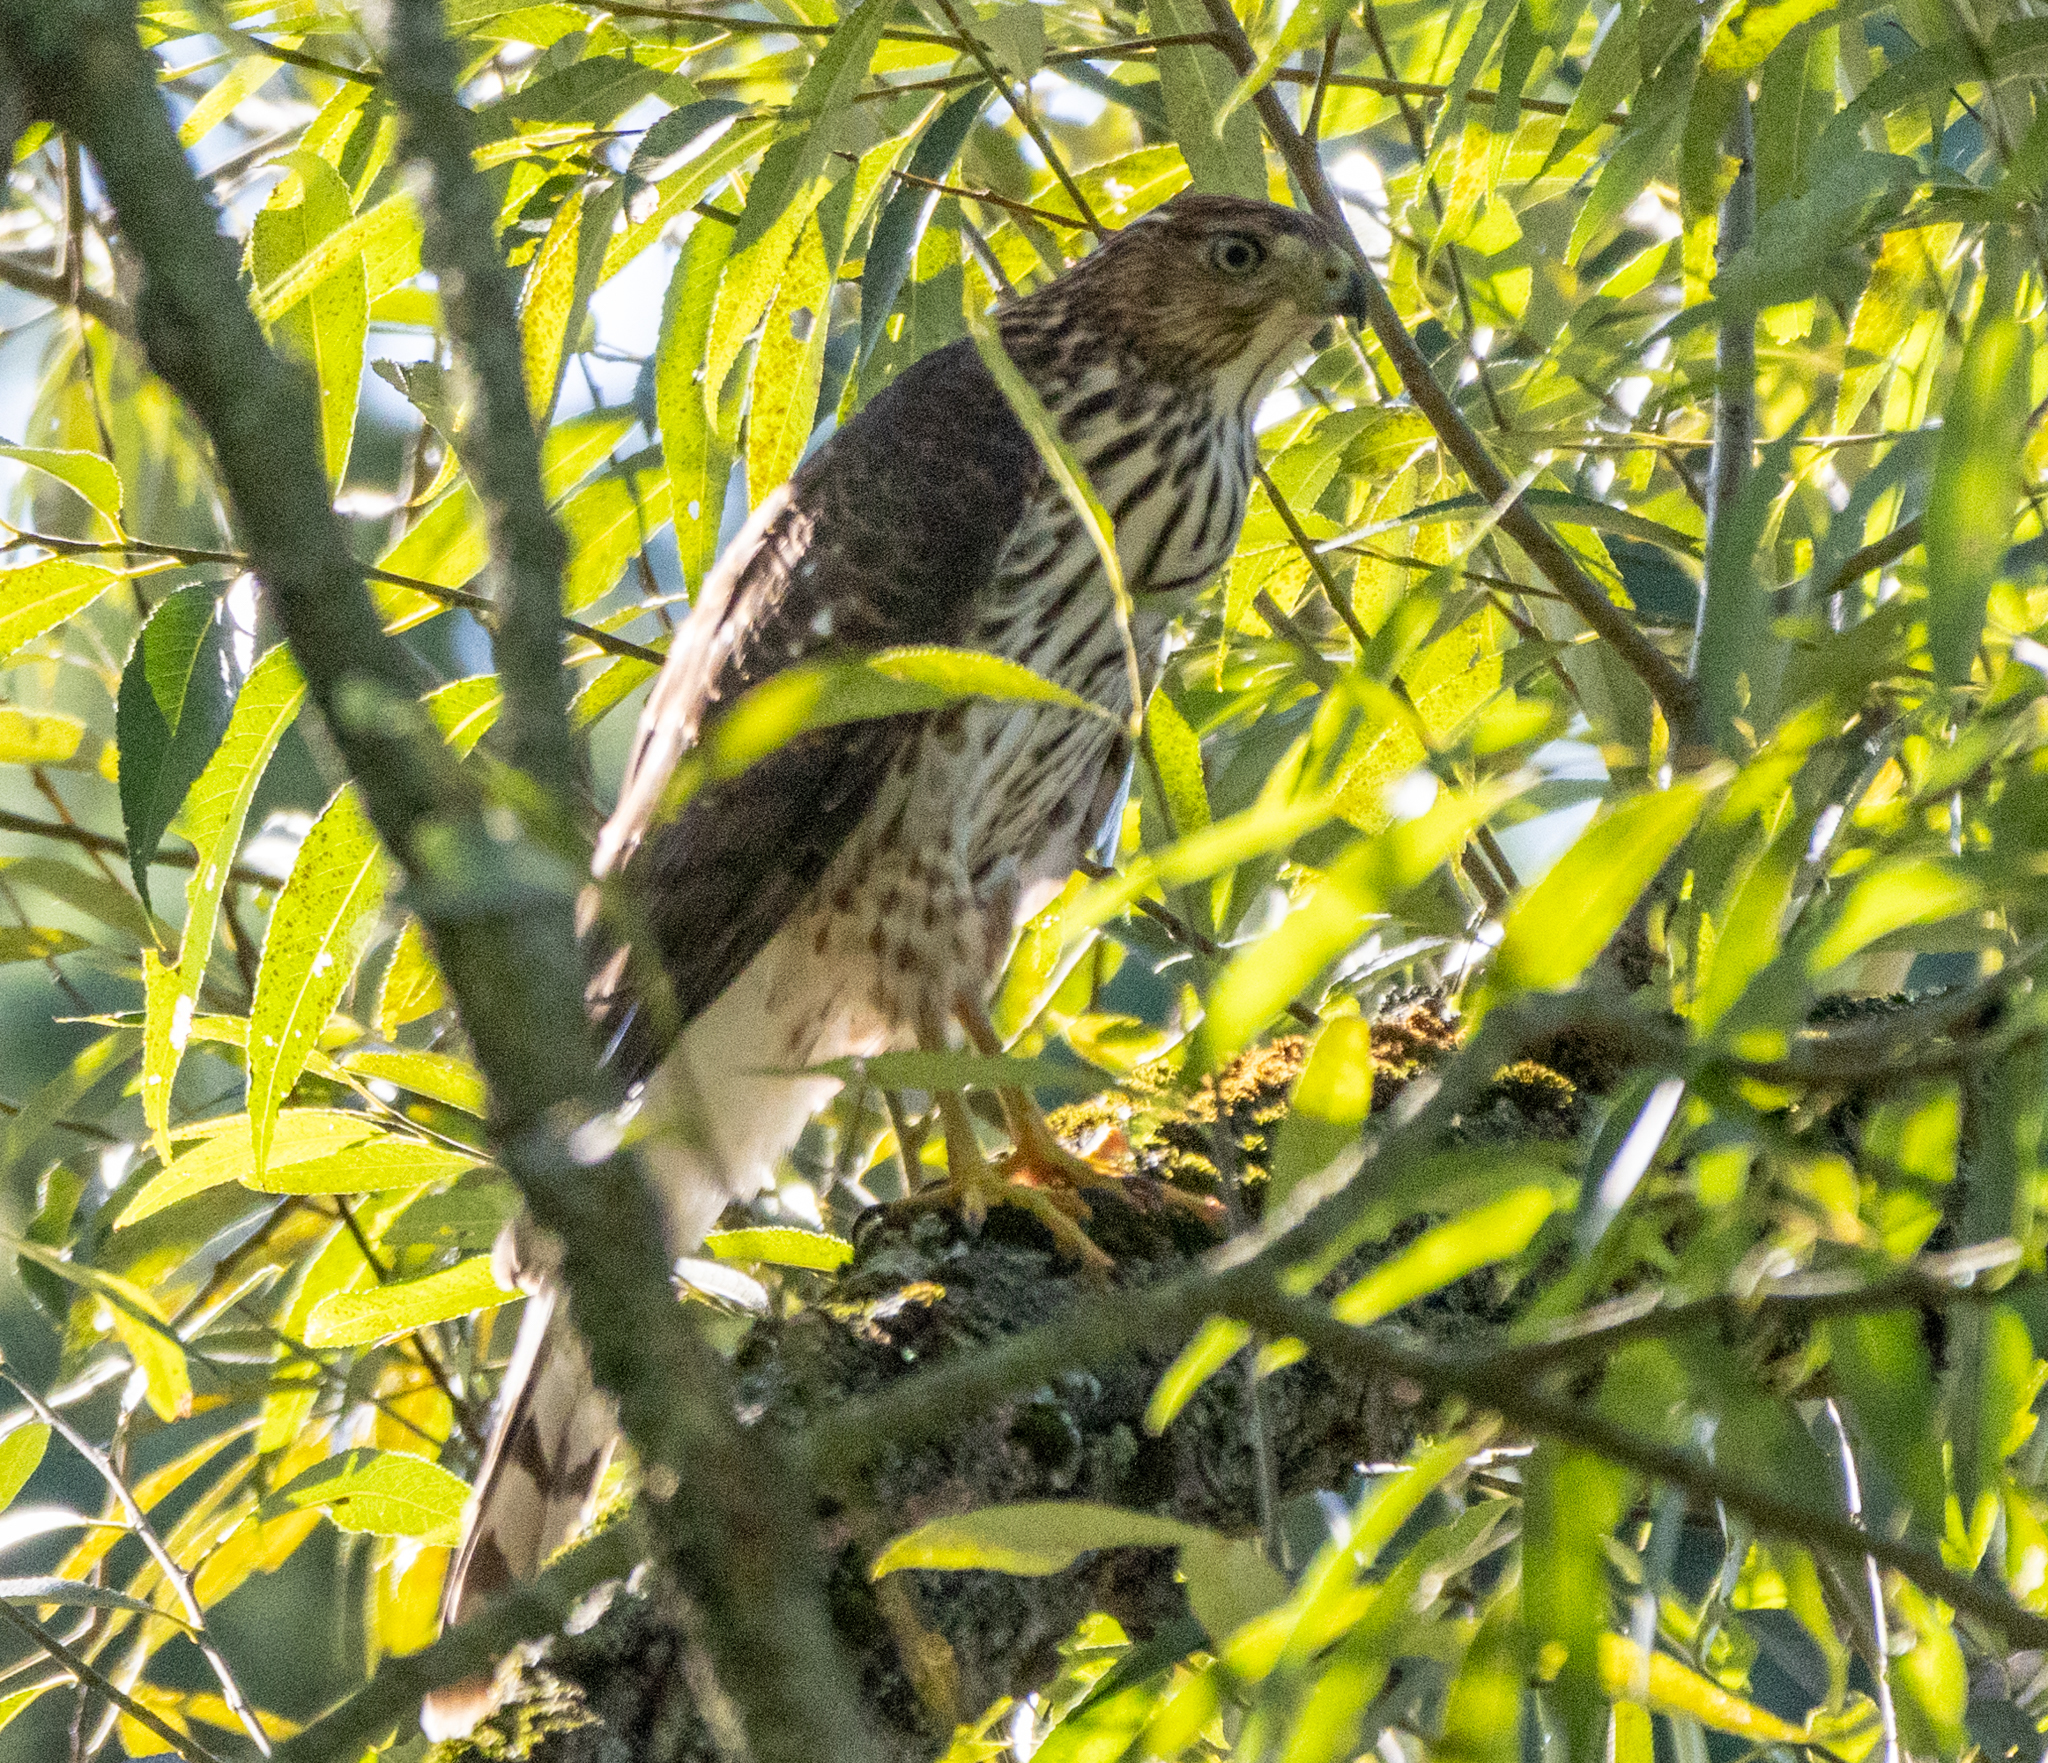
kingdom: Animalia
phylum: Chordata
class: Aves
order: Accipitriformes
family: Accipitridae
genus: Accipiter
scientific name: Accipiter cooperii
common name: Cooper's hawk
